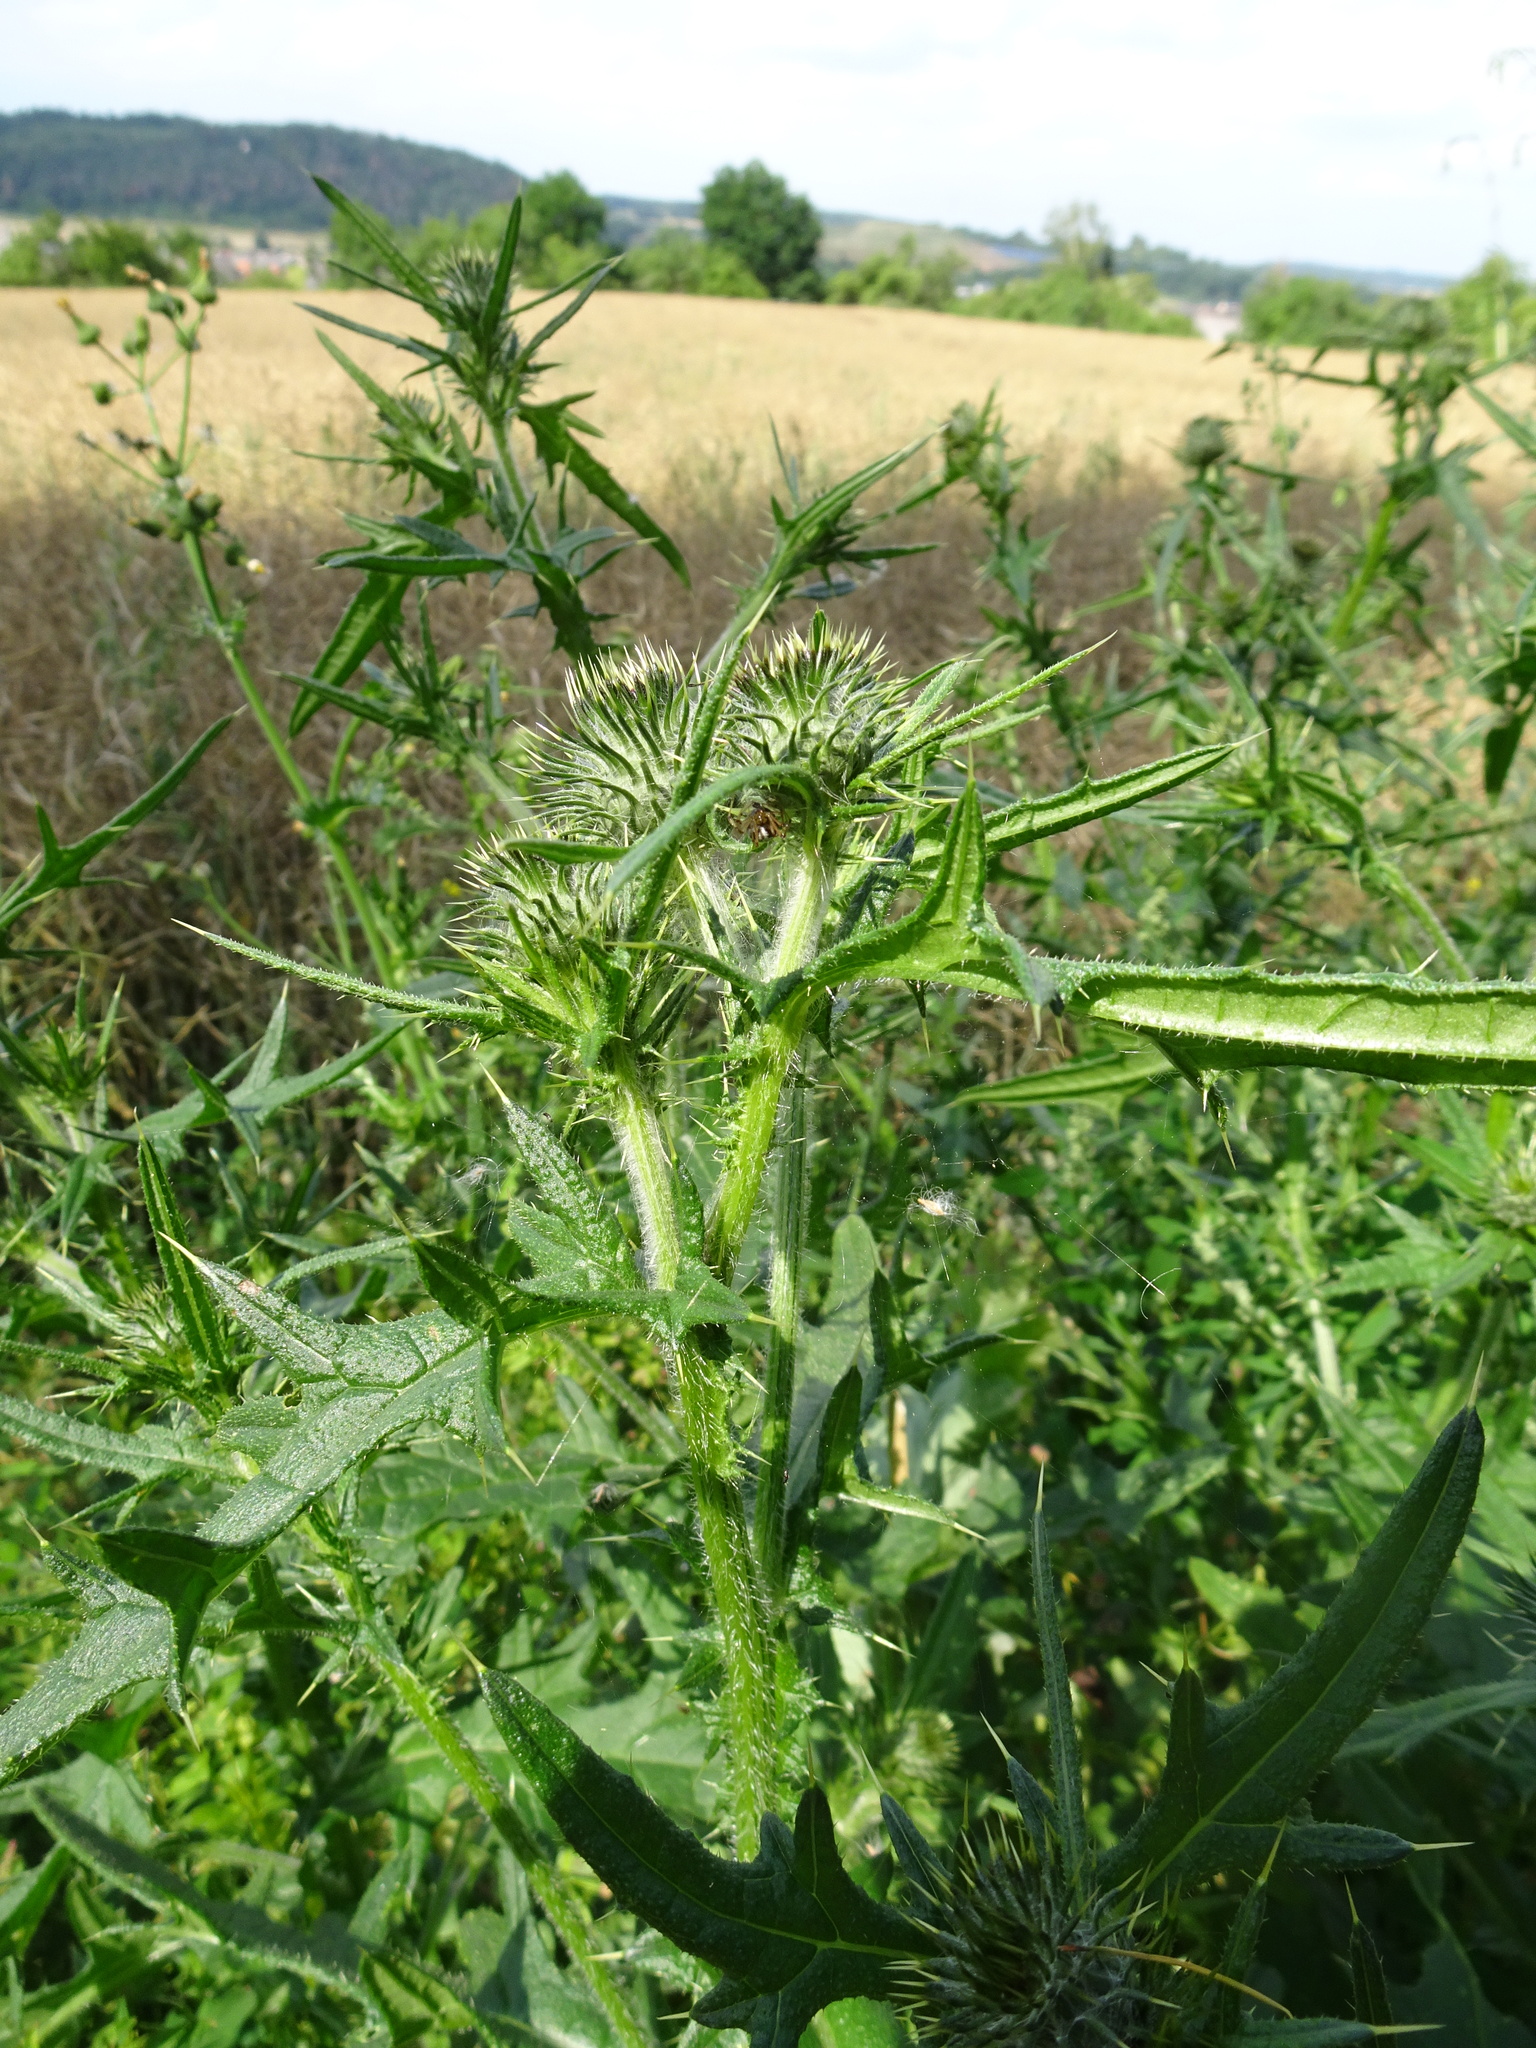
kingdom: Plantae
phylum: Tracheophyta
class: Magnoliopsida
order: Asterales
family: Asteraceae
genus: Cirsium
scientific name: Cirsium vulgare
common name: Bull thistle
